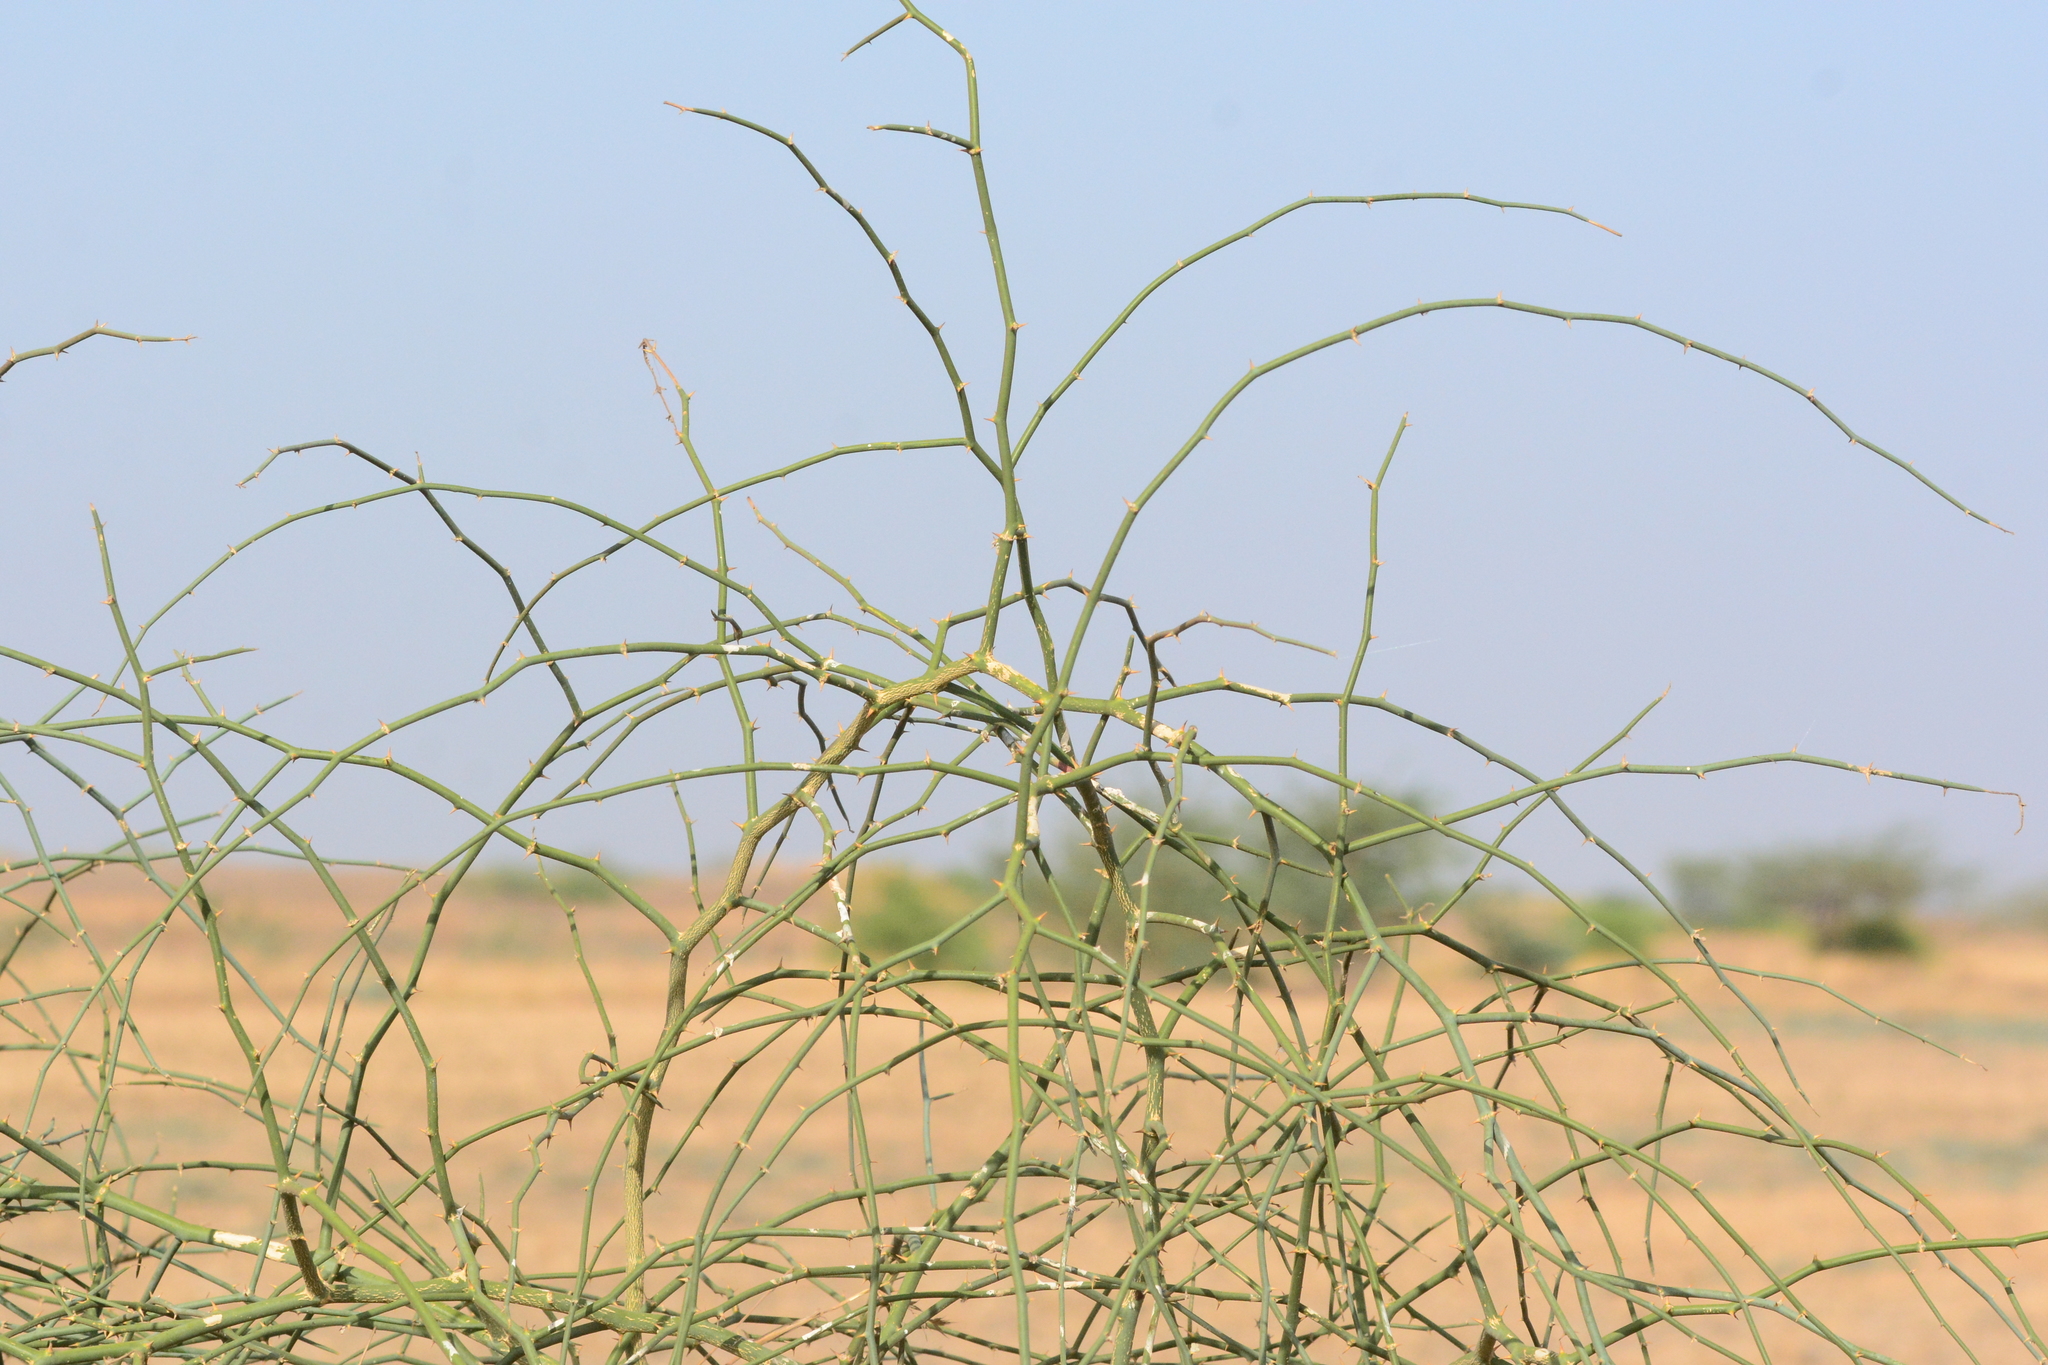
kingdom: Plantae
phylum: Tracheophyta
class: Magnoliopsida
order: Brassicales
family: Capparaceae
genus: Capparis
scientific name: Capparis decidua
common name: Sodada
